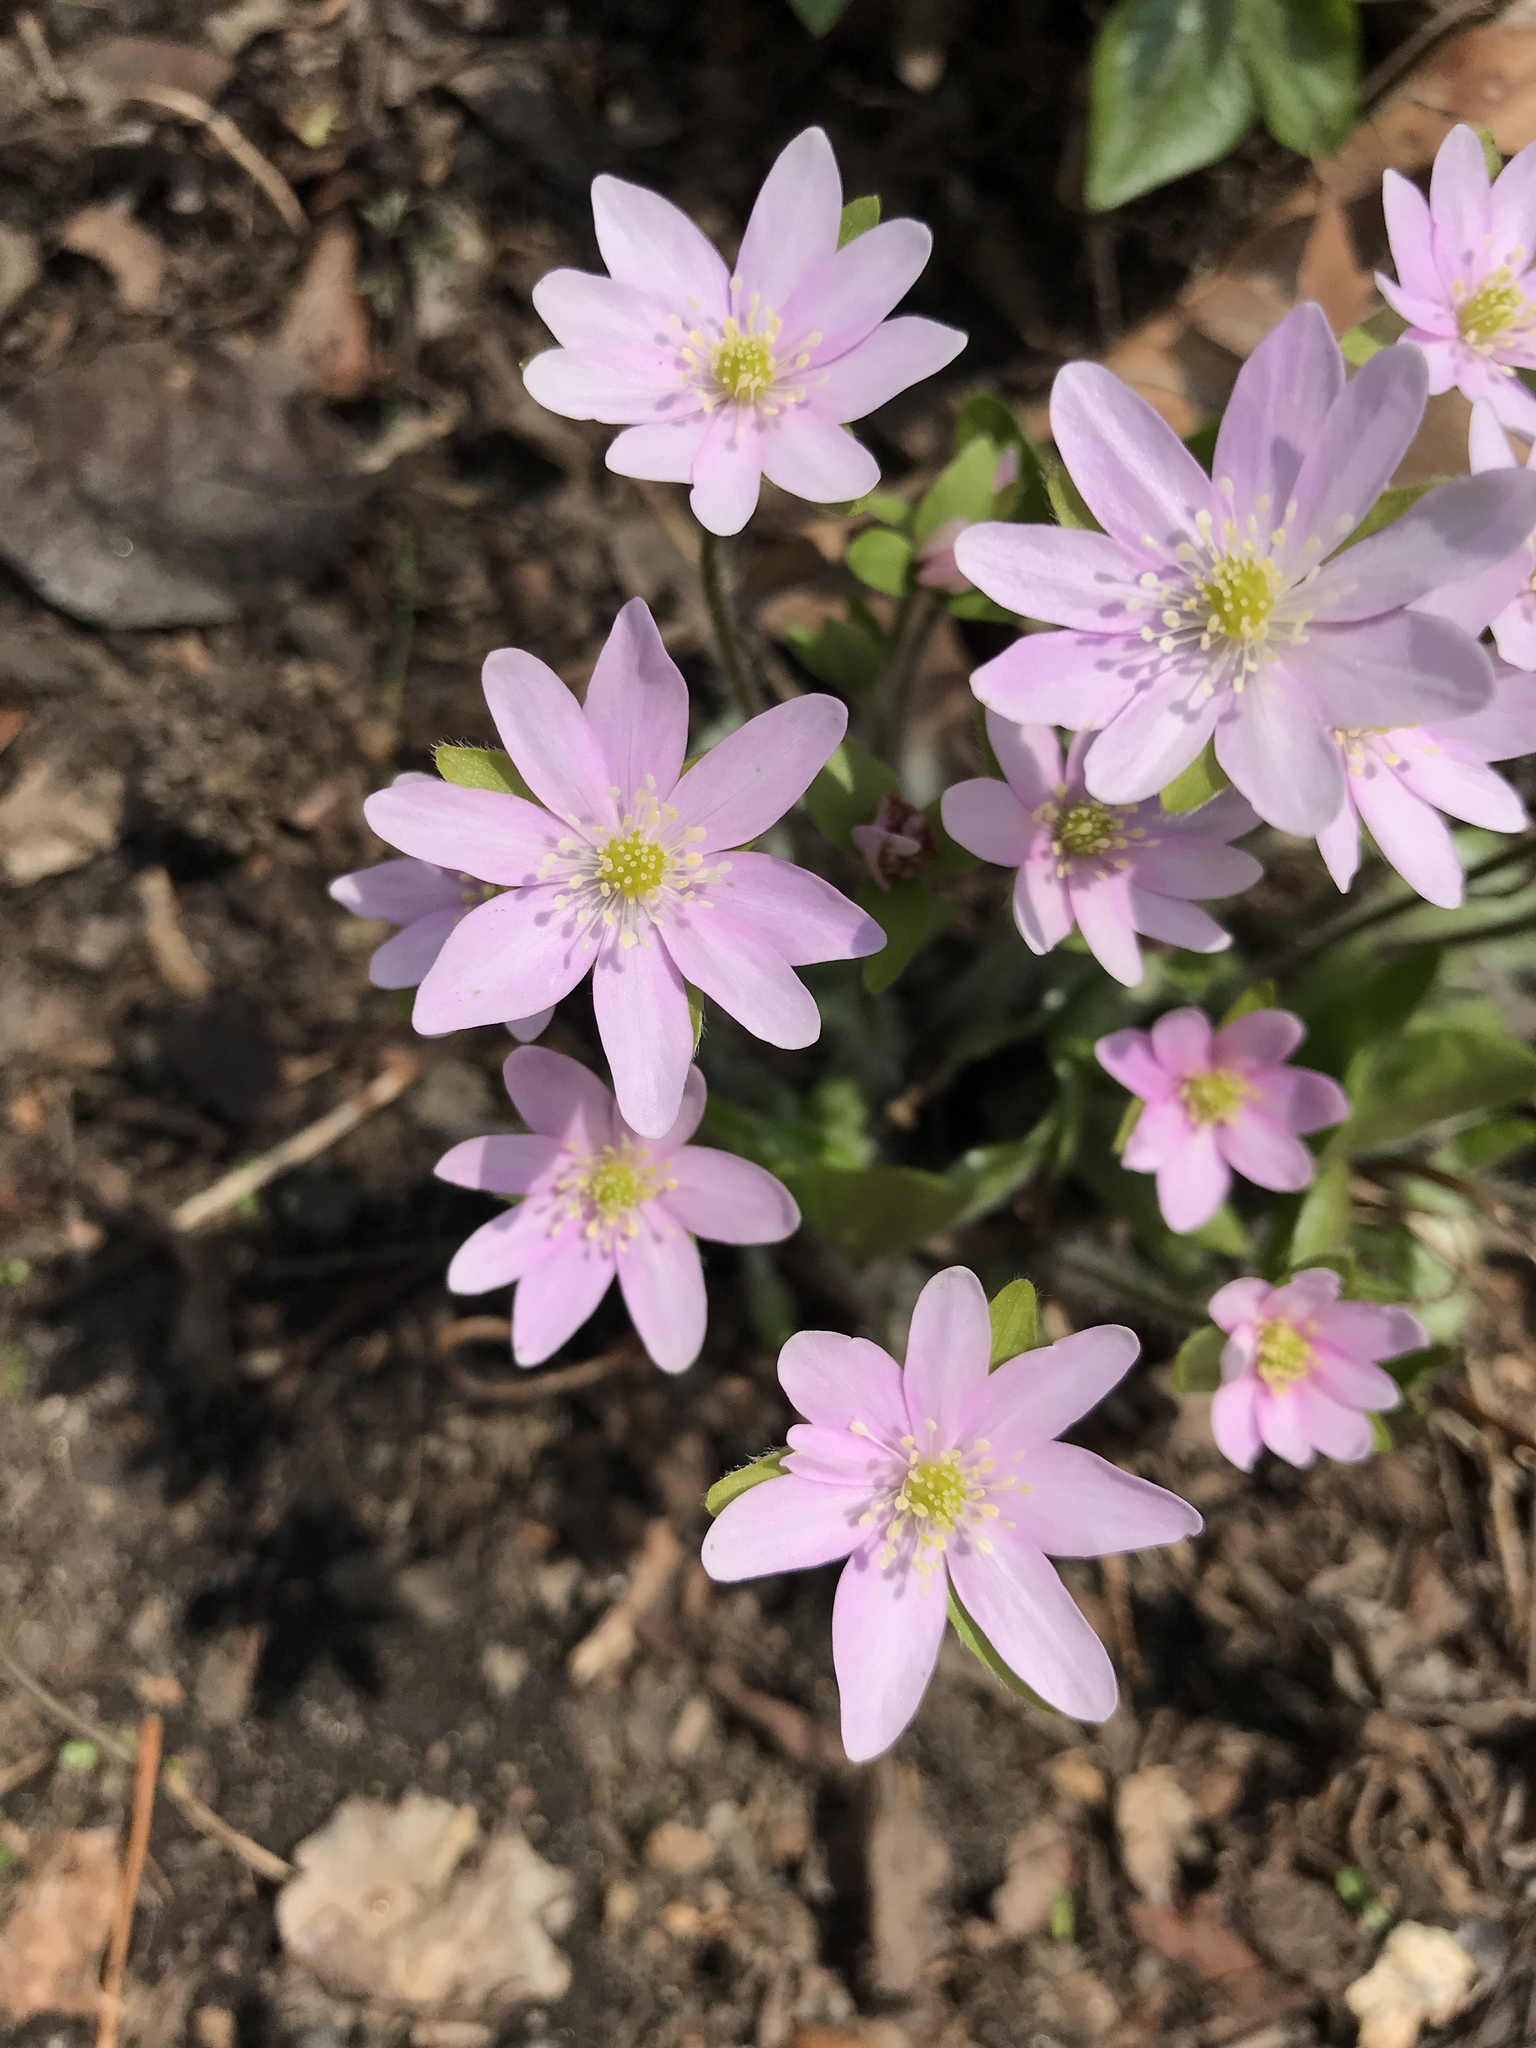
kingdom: Plantae
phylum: Tracheophyta
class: Magnoliopsida
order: Ranunculales
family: Ranunculaceae
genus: Hepatica
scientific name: Hepatica acutiloba
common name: Sharp-lobed hepatica
